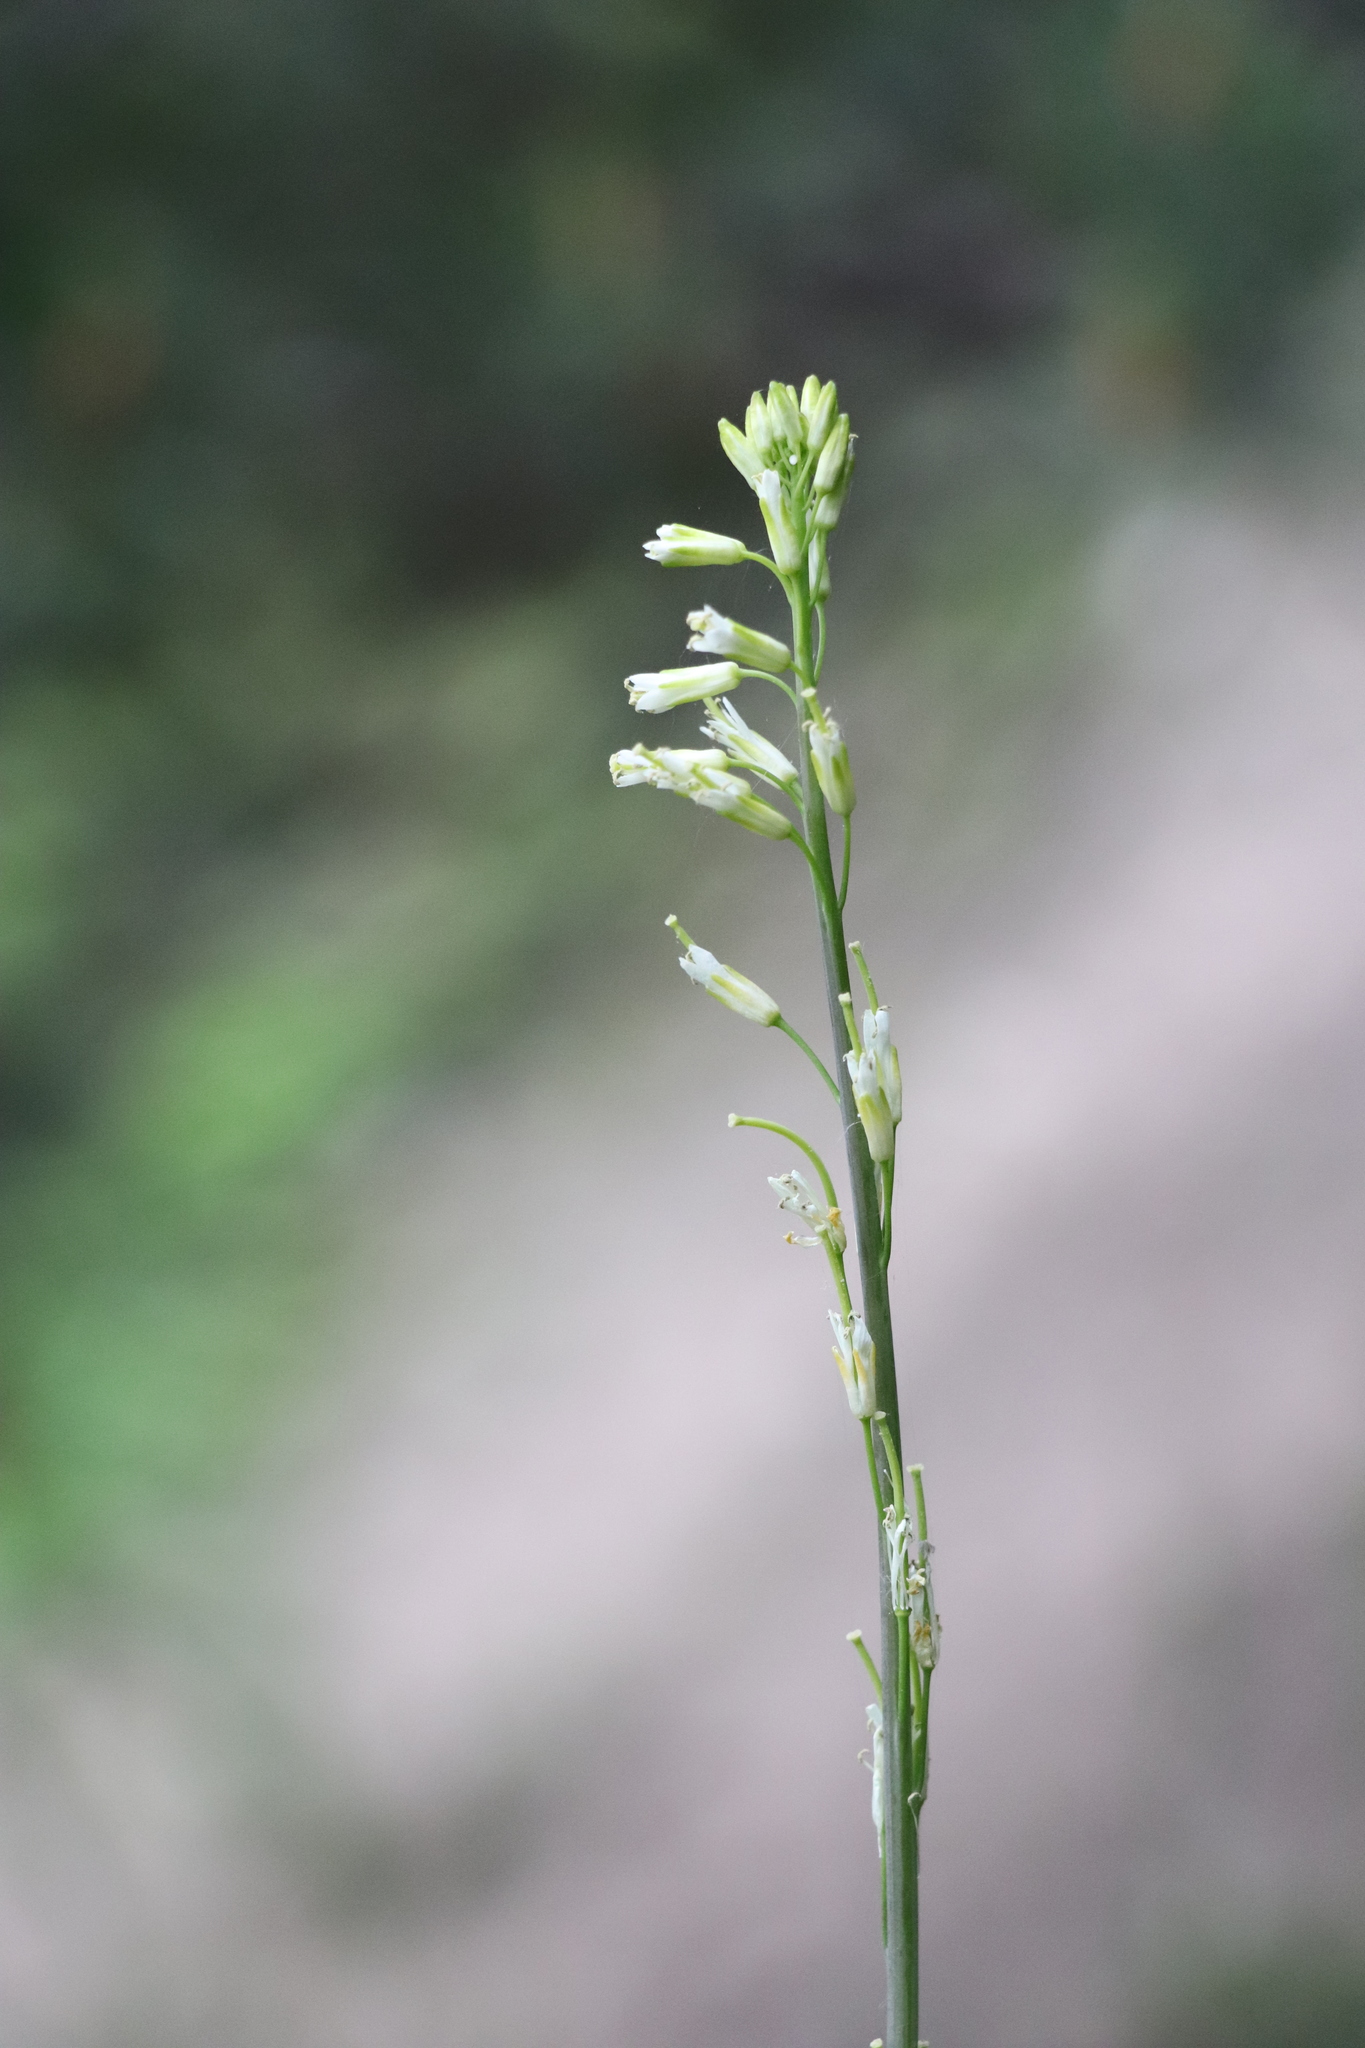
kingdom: Plantae
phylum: Tracheophyta
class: Magnoliopsida
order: Brassicales
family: Brassicaceae
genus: Turritis
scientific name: Turritis glabra
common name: Tower rockcress
